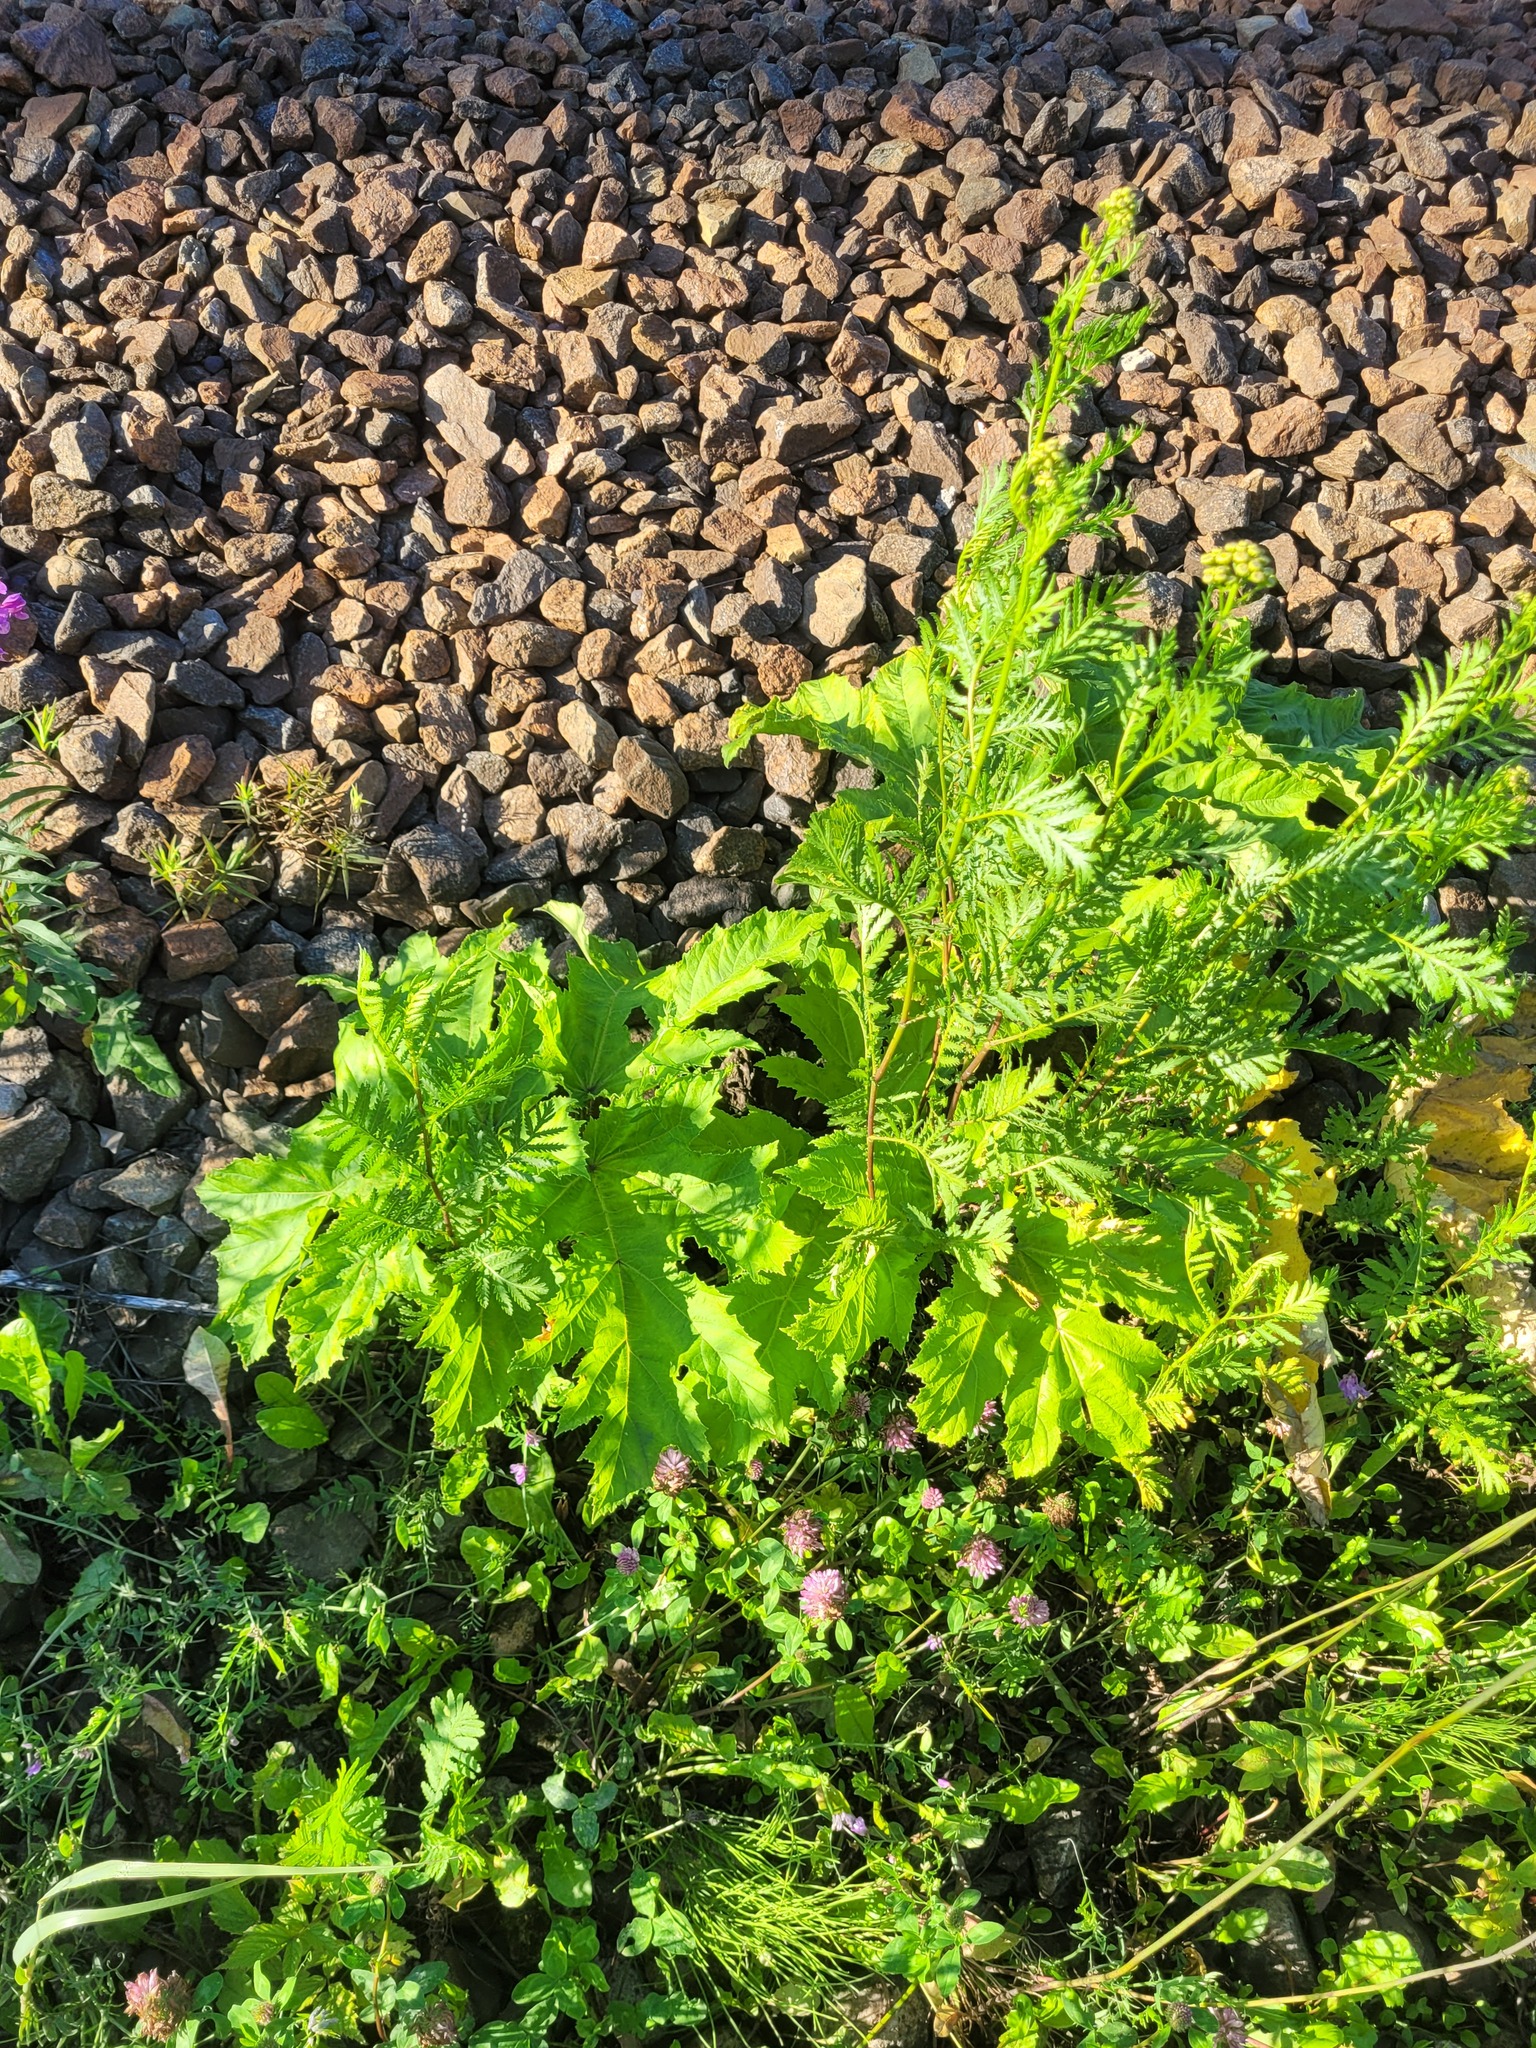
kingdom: Plantae
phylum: Tracheophyta
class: Magnoliopsida
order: Apiales
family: Apiaceae
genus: Heracleum
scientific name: Heracleum sosnowskyi
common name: Sosnowsky's hogweed
